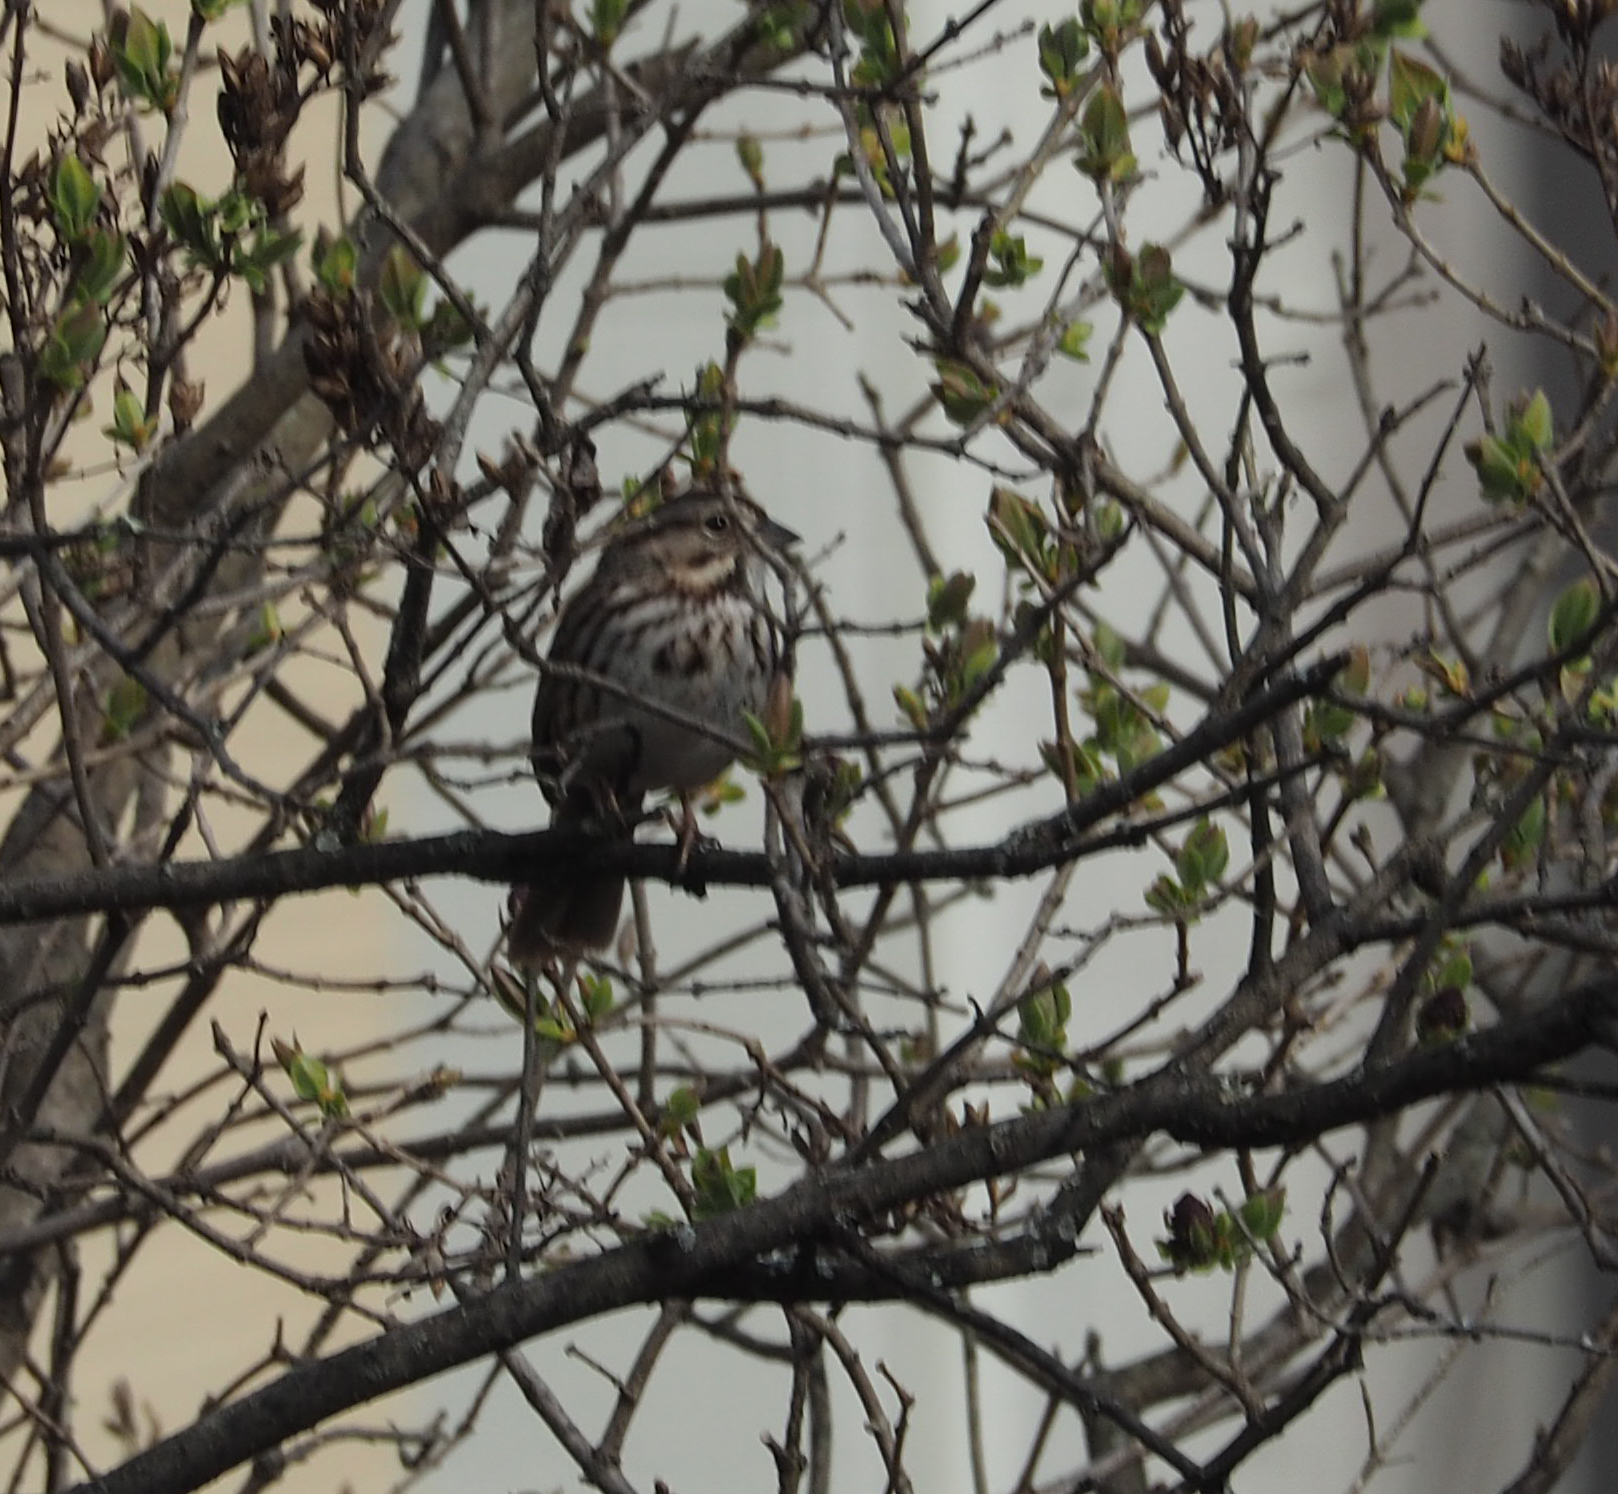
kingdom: Animalia
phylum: Chordata
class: Aves
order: Passeriformes
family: Passerellidae
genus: Melospiza
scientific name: Melospiza melodia
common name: Song sparrow
